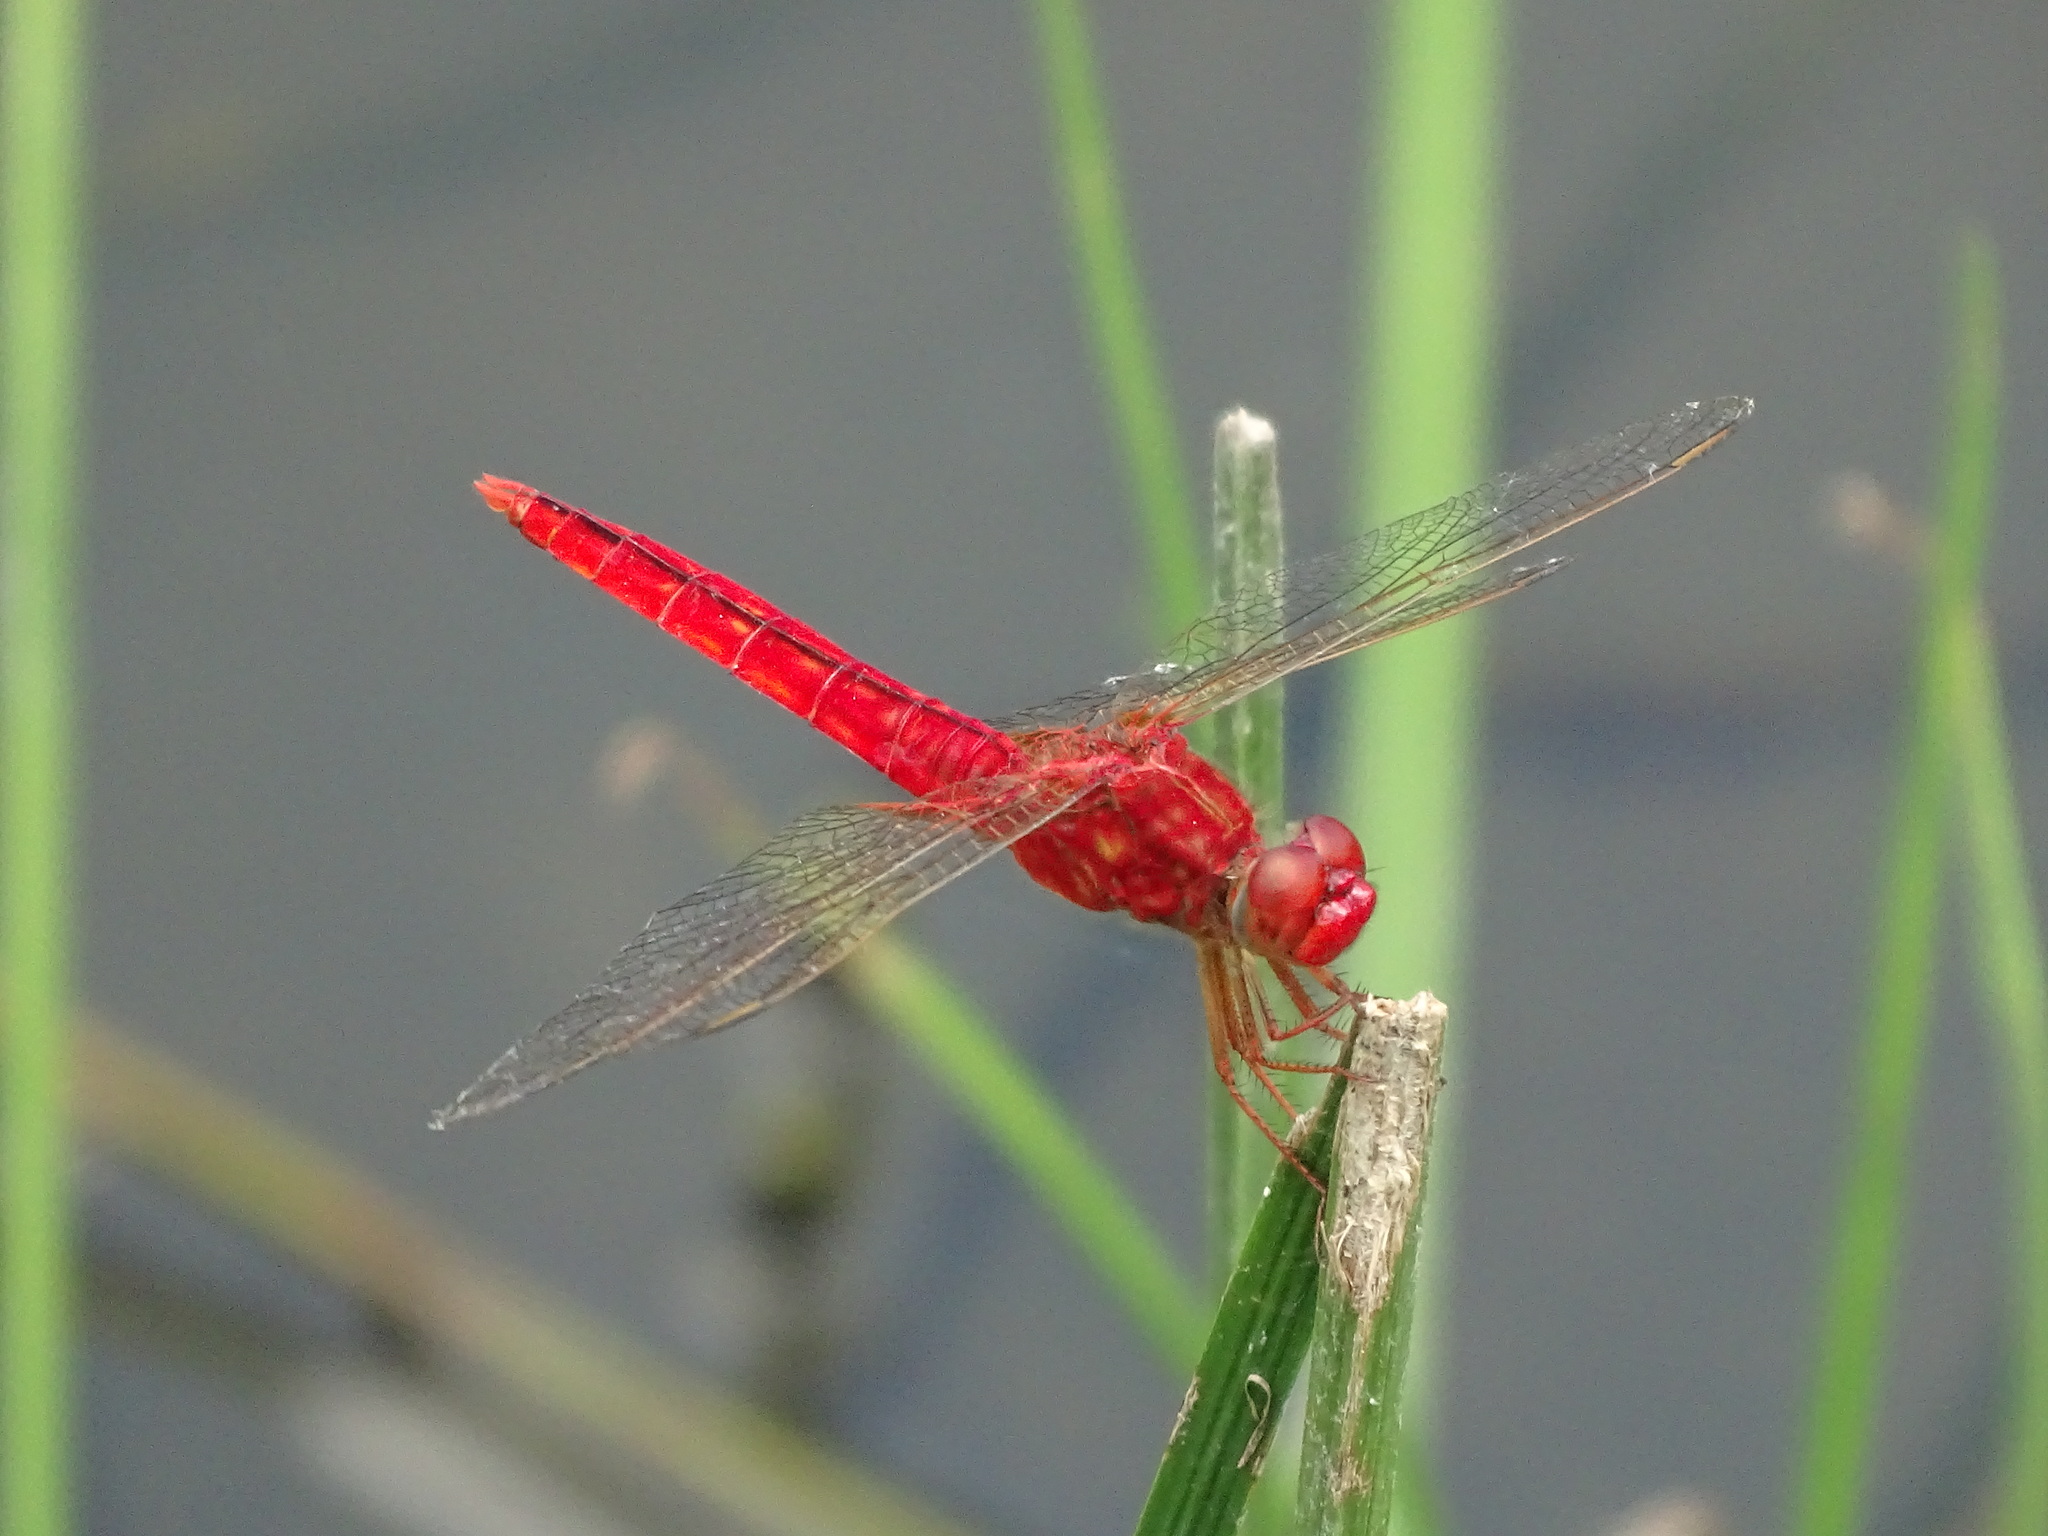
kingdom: Animalia
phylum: Arthropoda
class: Insecta
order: Odonata
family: Libellulidae
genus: Crocothemis
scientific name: Crocothemis servilia
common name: Scarlet skimmer
